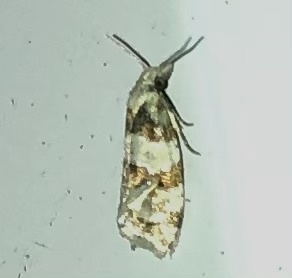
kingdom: Animalia
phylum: Arthropoda
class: Insecta
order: Lepidoptera
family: Tortricidae
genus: Aethes
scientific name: Aethes argentilimitana
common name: Silver-bordered aethes
